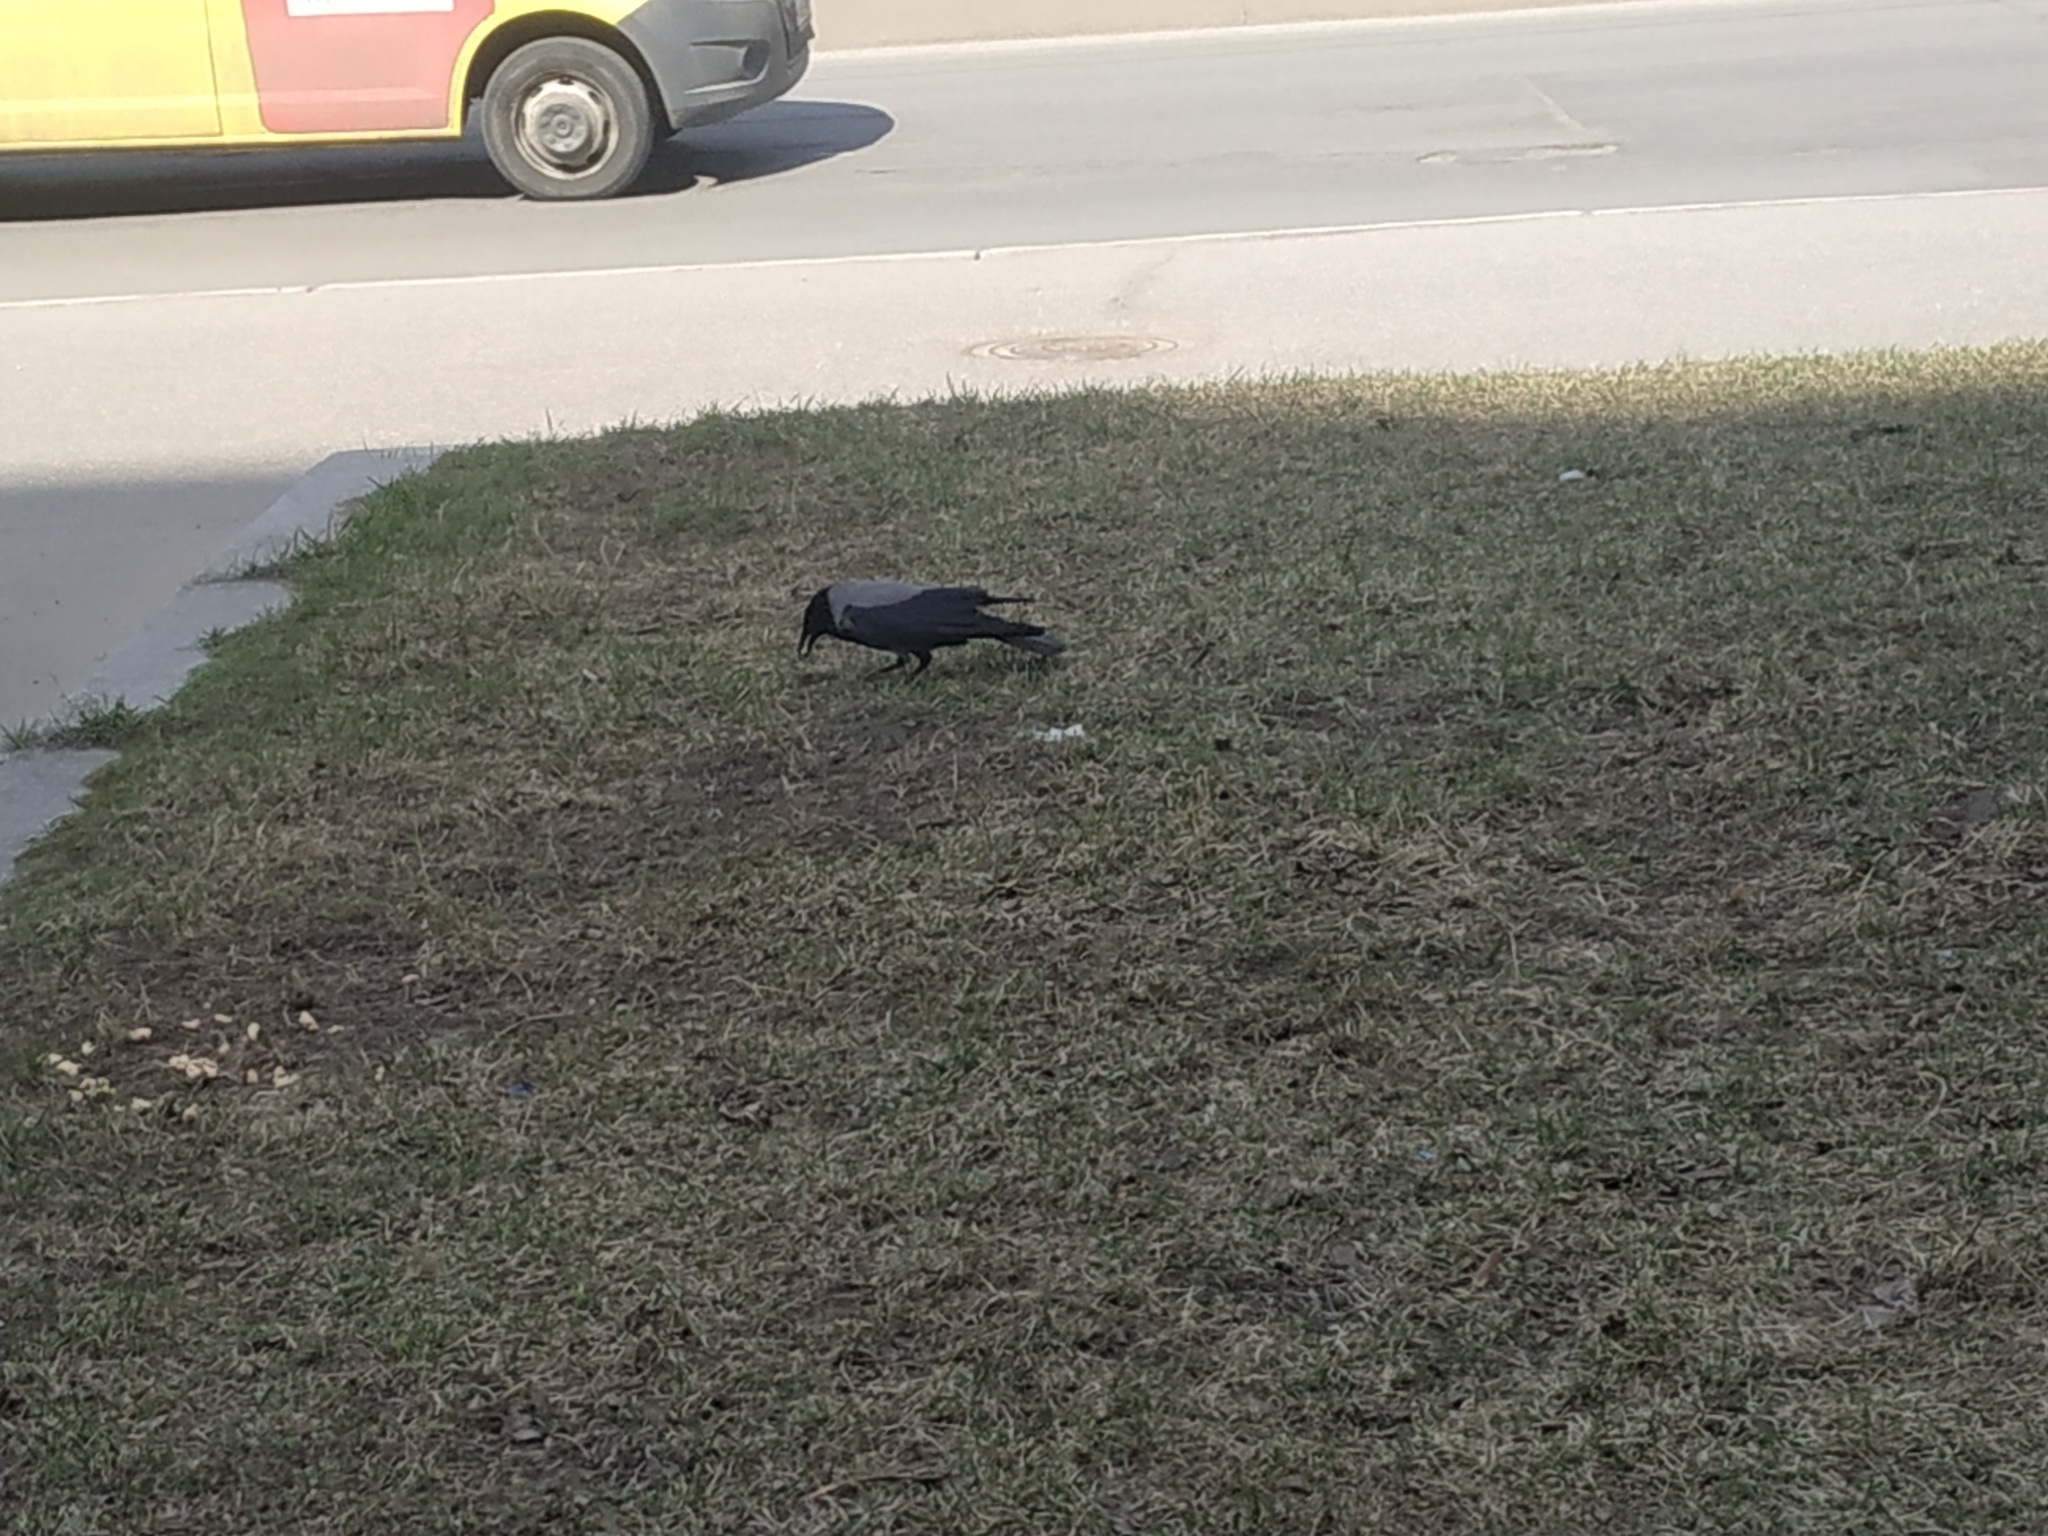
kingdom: Animalia
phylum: Chordata
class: Aves
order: Passeriformes
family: Corvidae
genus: Corvus
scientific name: Corvus cornix
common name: Hooded crow
